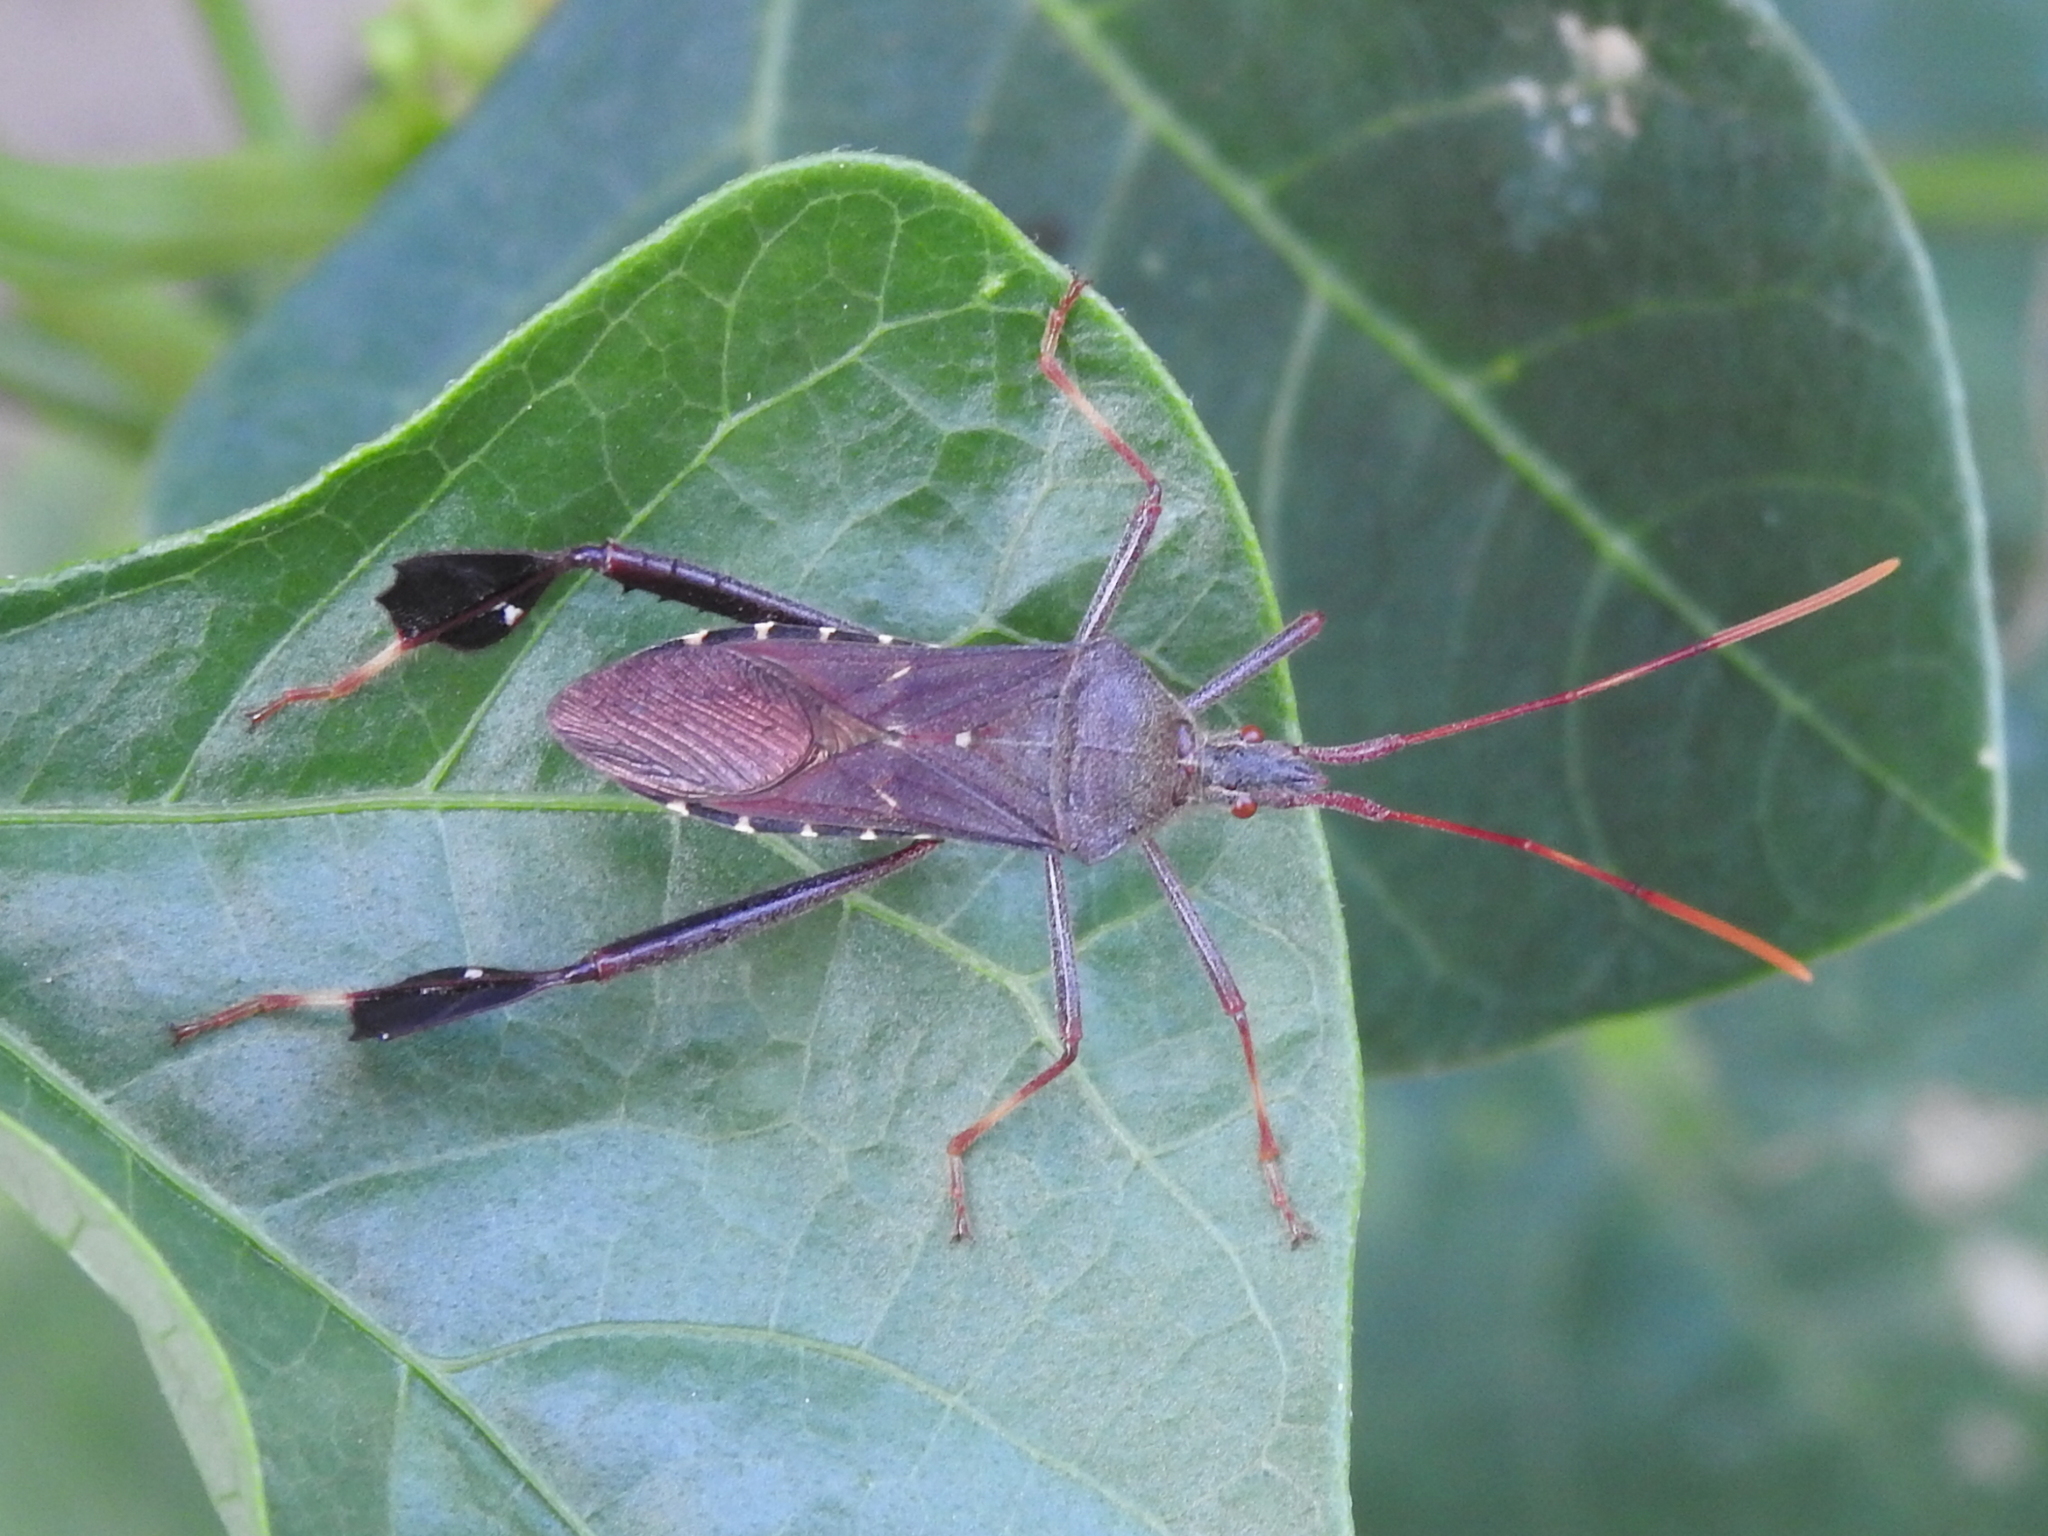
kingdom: Animalia
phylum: Arthropoda
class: Insecta
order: Hemiptera
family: Coreidae
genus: Leptoglossus
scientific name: Leptoglossus oppositus
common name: Northern leaf-footed bug
